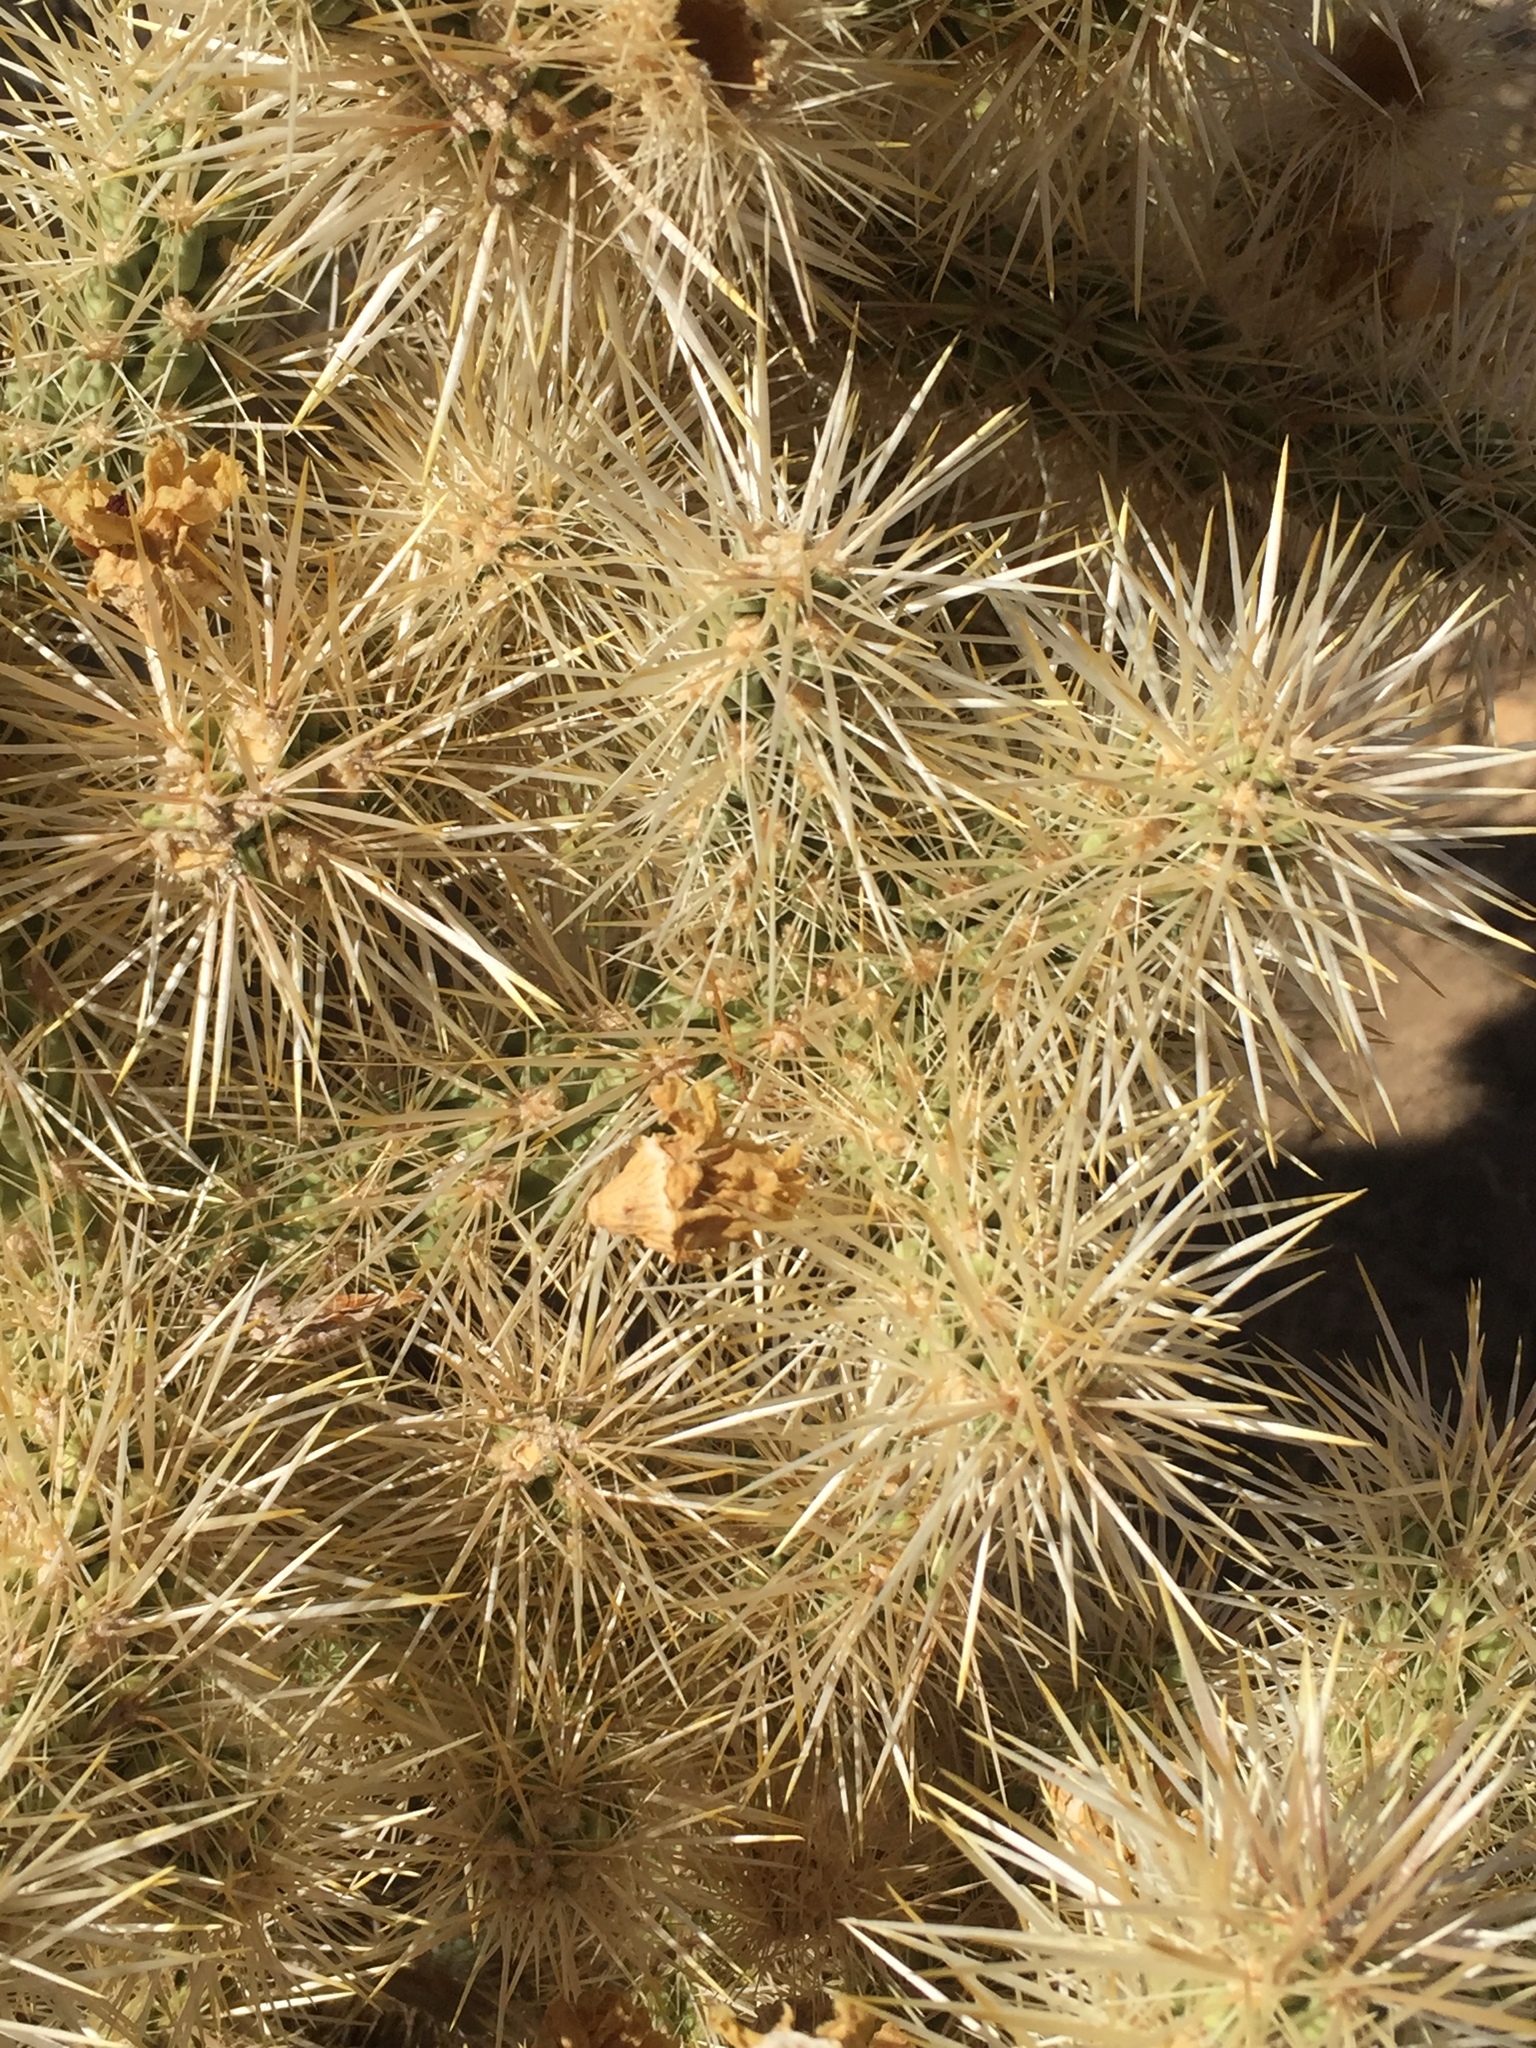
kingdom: Plantae
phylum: Tracheophyta
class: Magnoliopsida
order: Caryophyllales
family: Cactaceae
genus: Cylindropuntia
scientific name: Cylindropuntia echinocarpa
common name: Ground cholla
